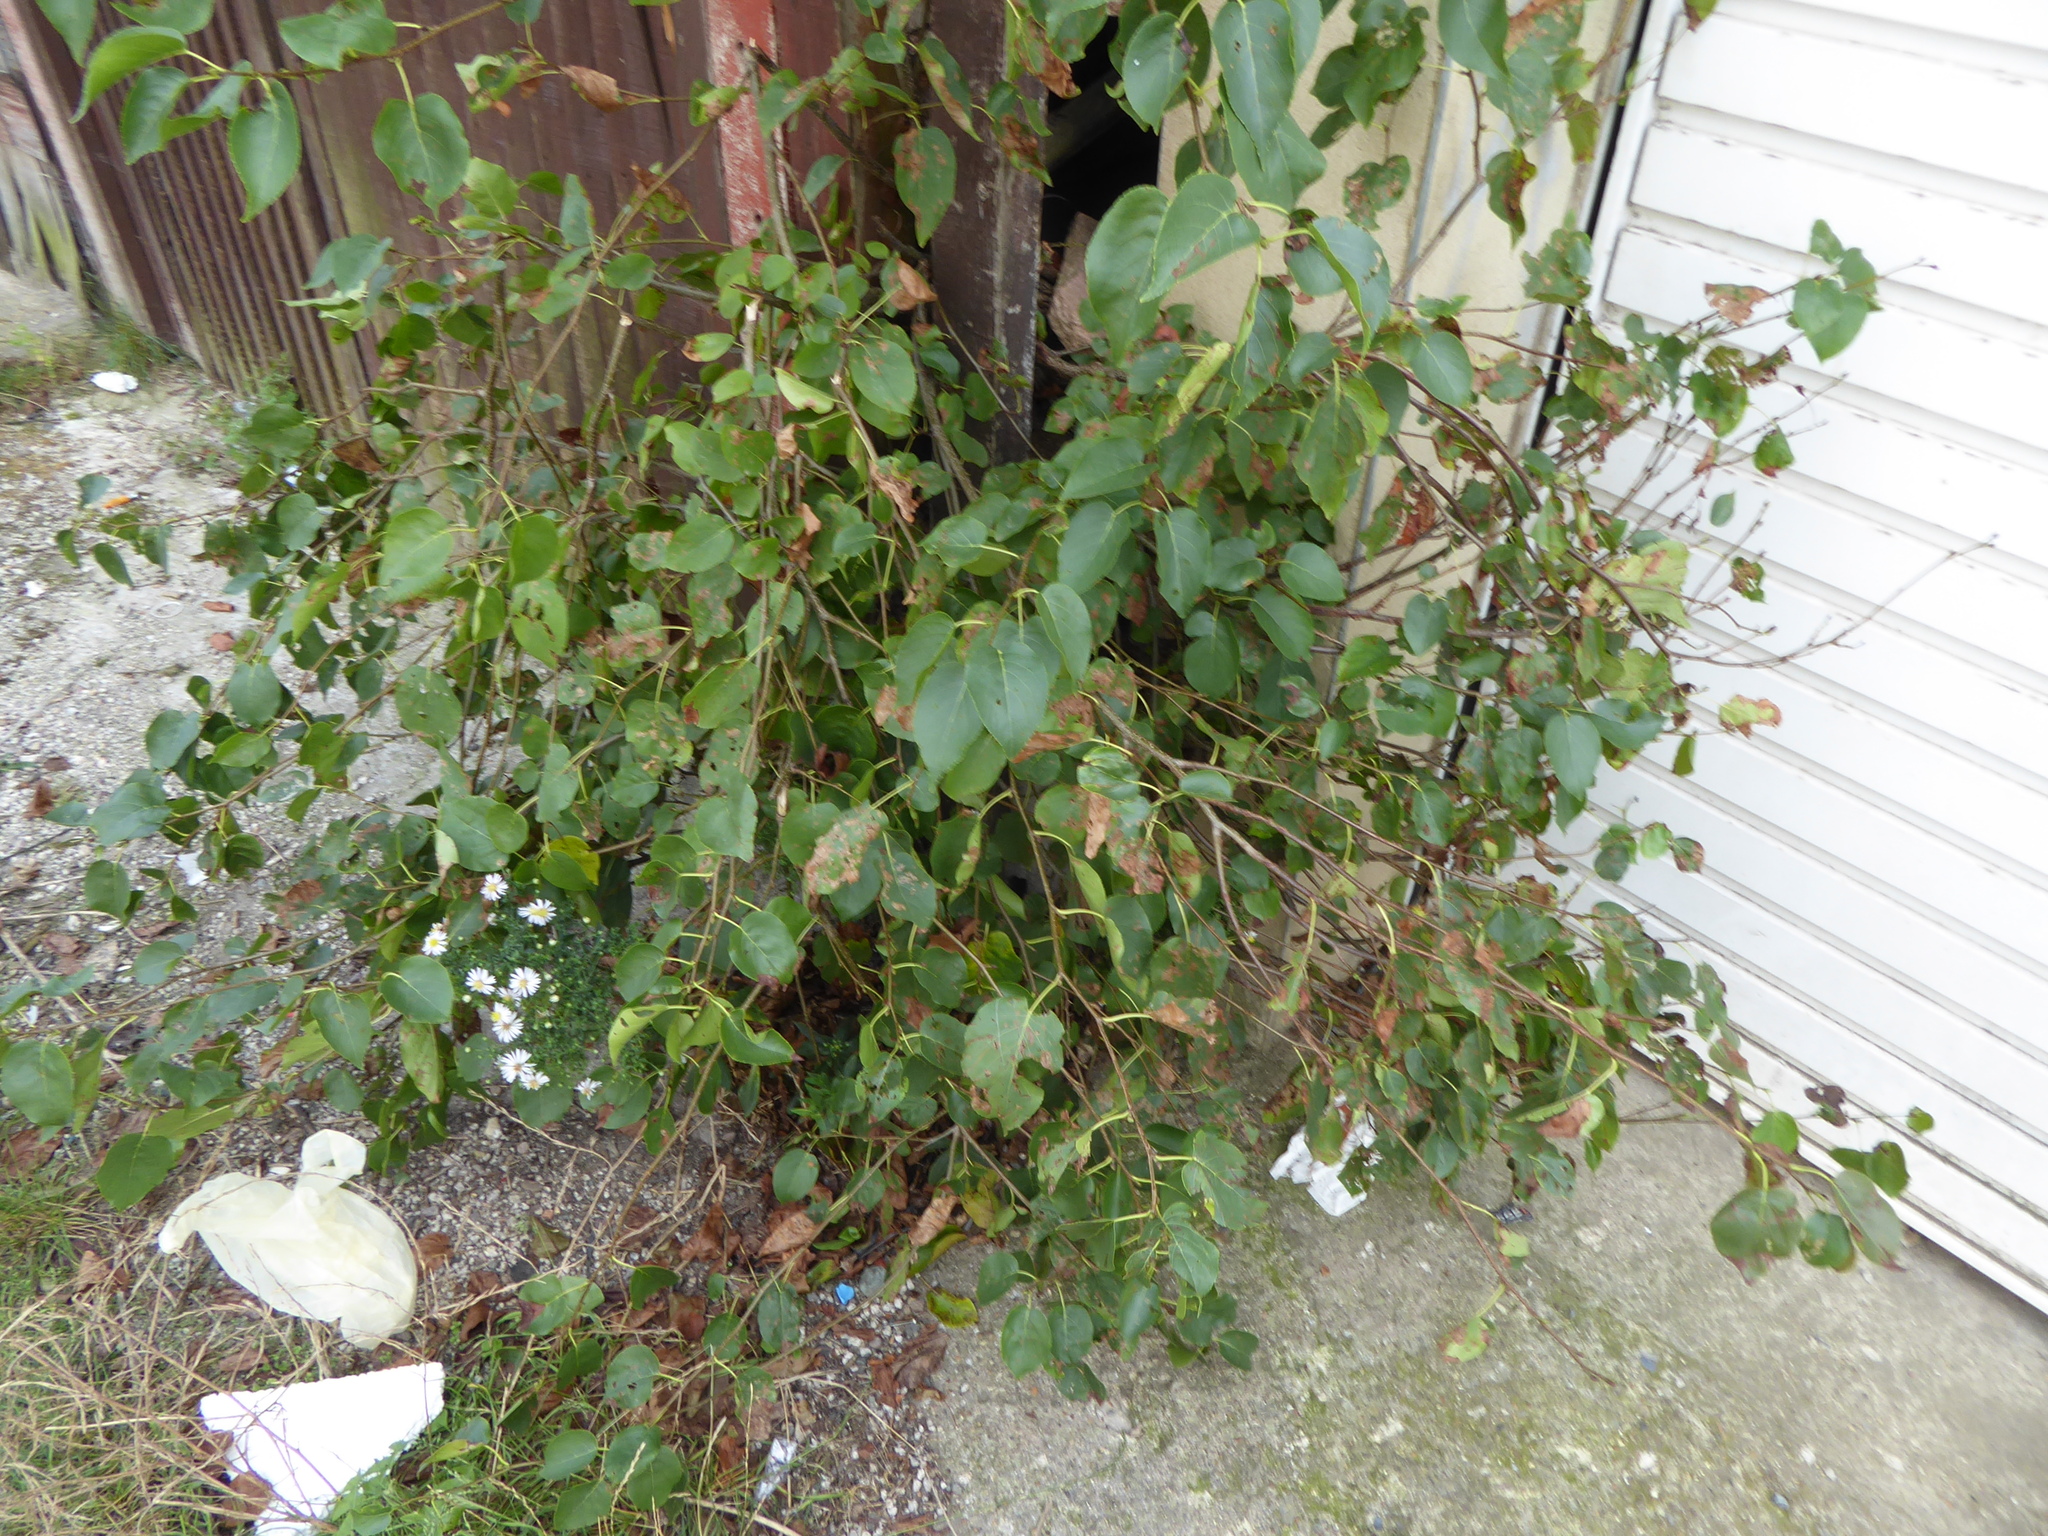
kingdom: Plantae
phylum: Tracheophyta
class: Magnoliopsida
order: Fagales
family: Betulaceae
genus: Alnus
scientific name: Alnus cordata
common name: Italian alder
